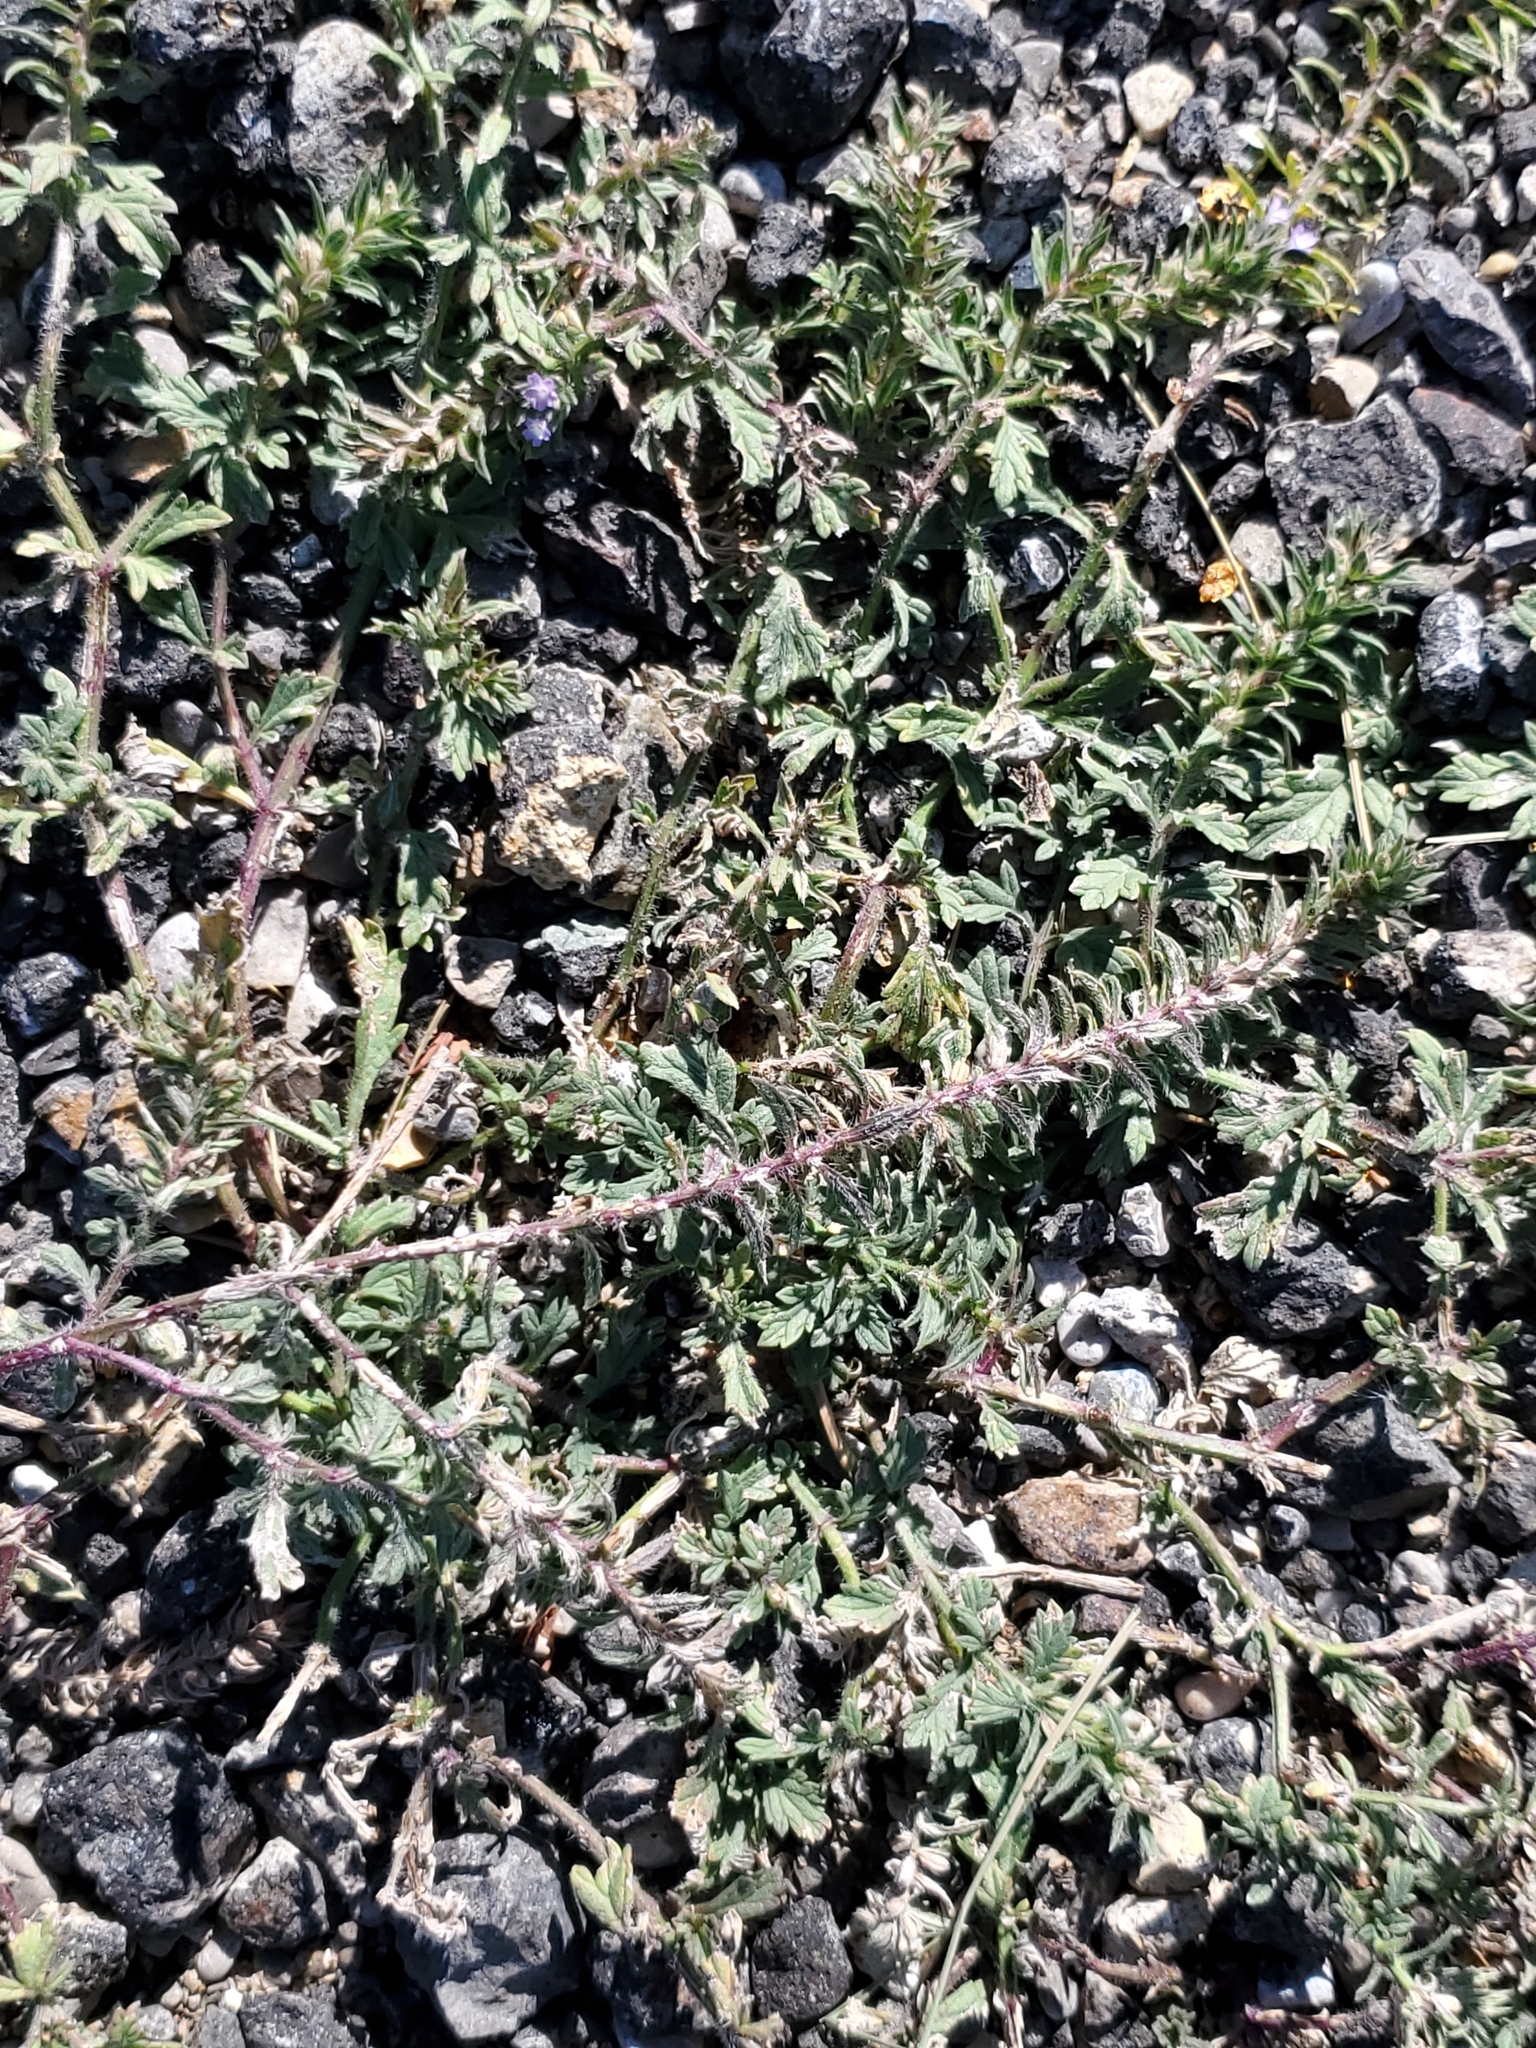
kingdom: Plantae
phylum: Tracheophyta
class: Magnoliopsida
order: Lamiales
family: Verbenaceae
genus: Verbena
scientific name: Verbena bracteata
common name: Bracted vervain
